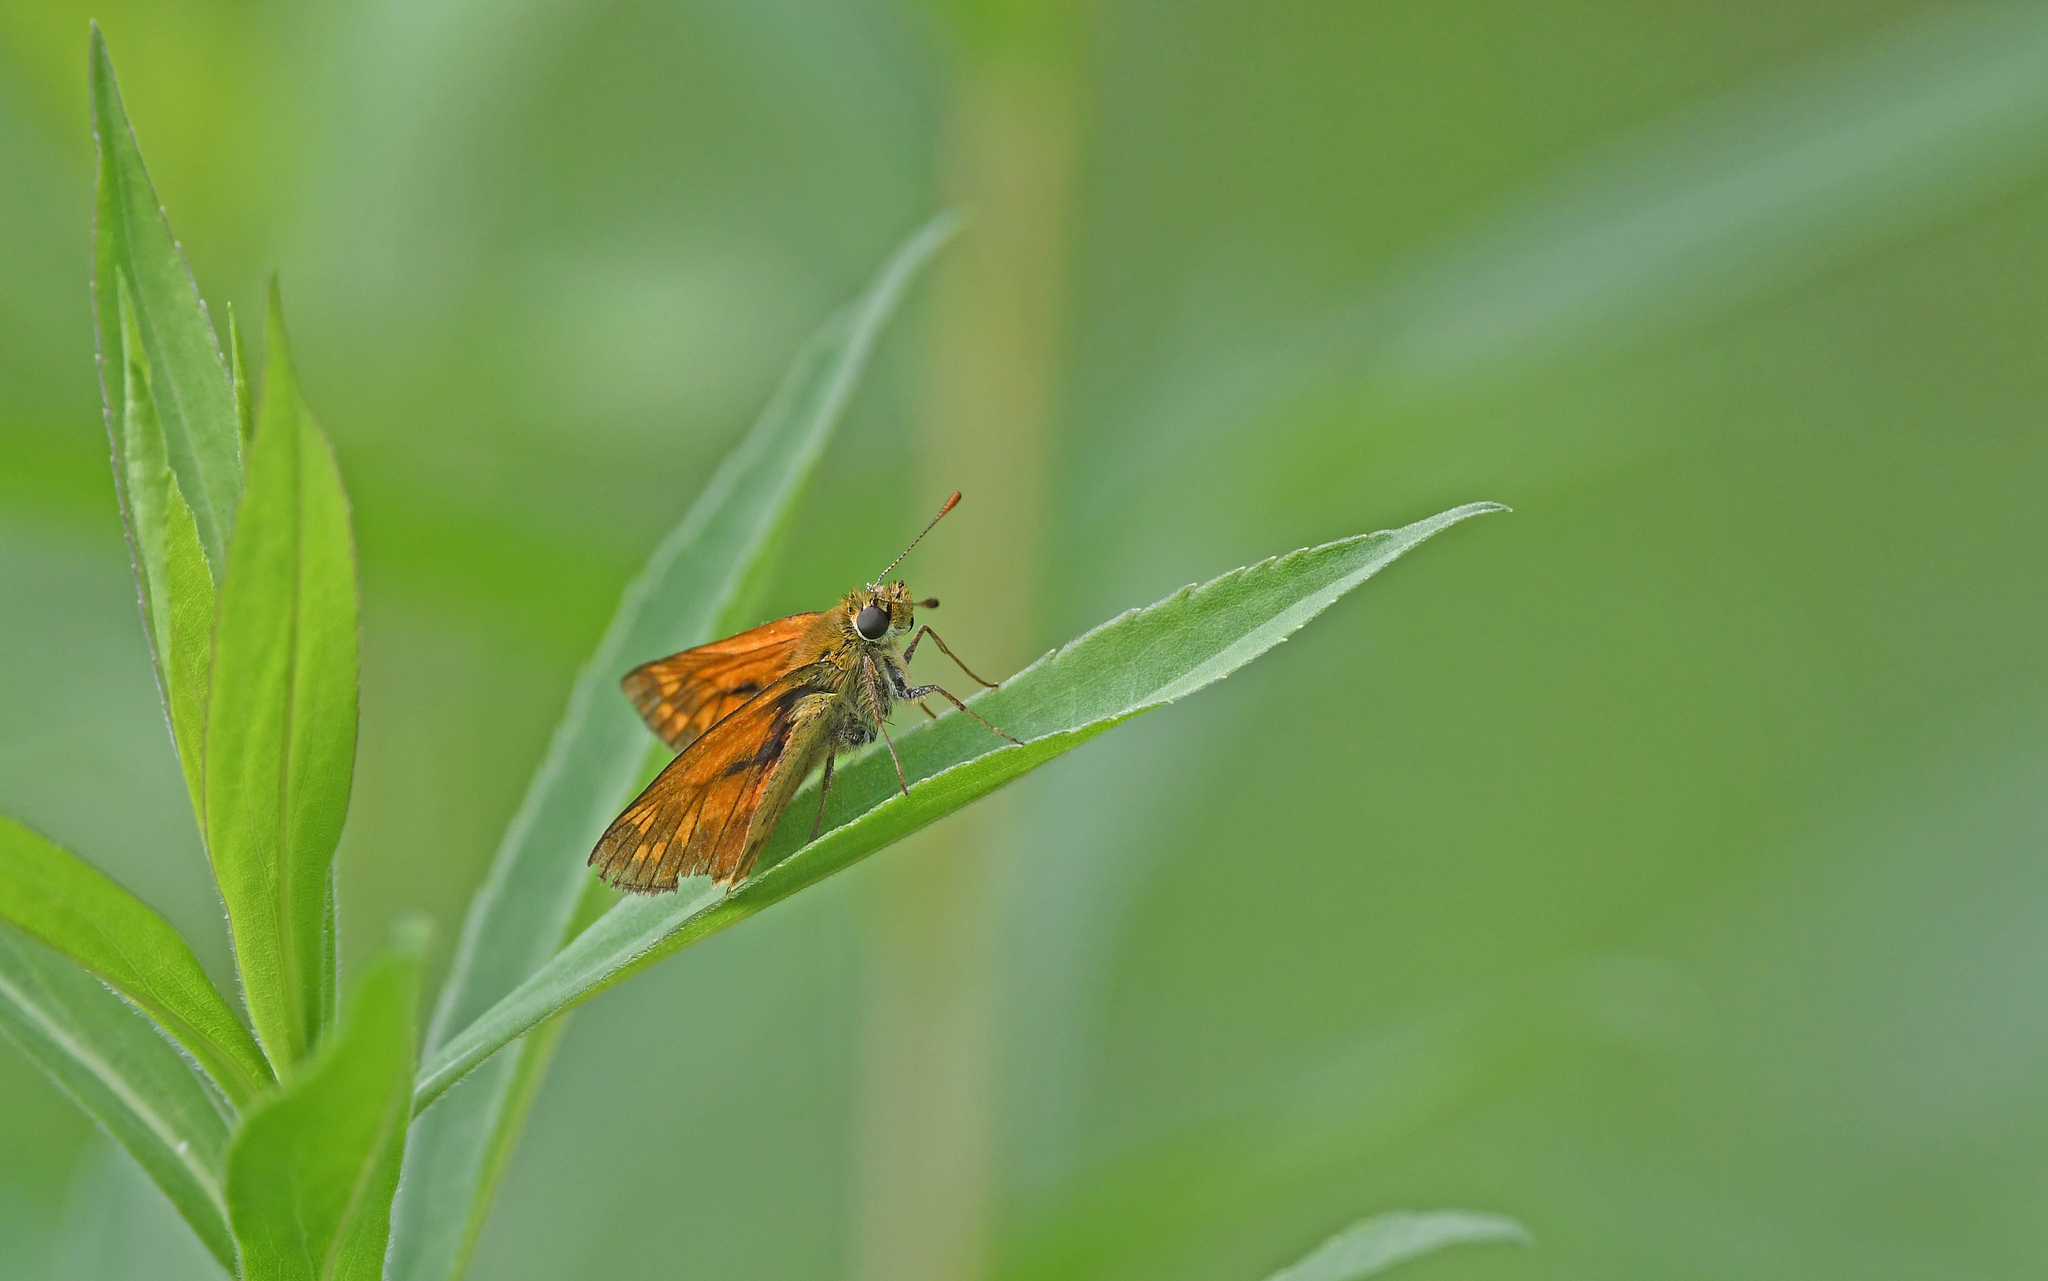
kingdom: Animalia
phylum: Arthropoda
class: Insecta
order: Lepidoptera
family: Hesperiidae
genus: Ochlodes
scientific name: Ochlodes venata
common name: Large skipper
